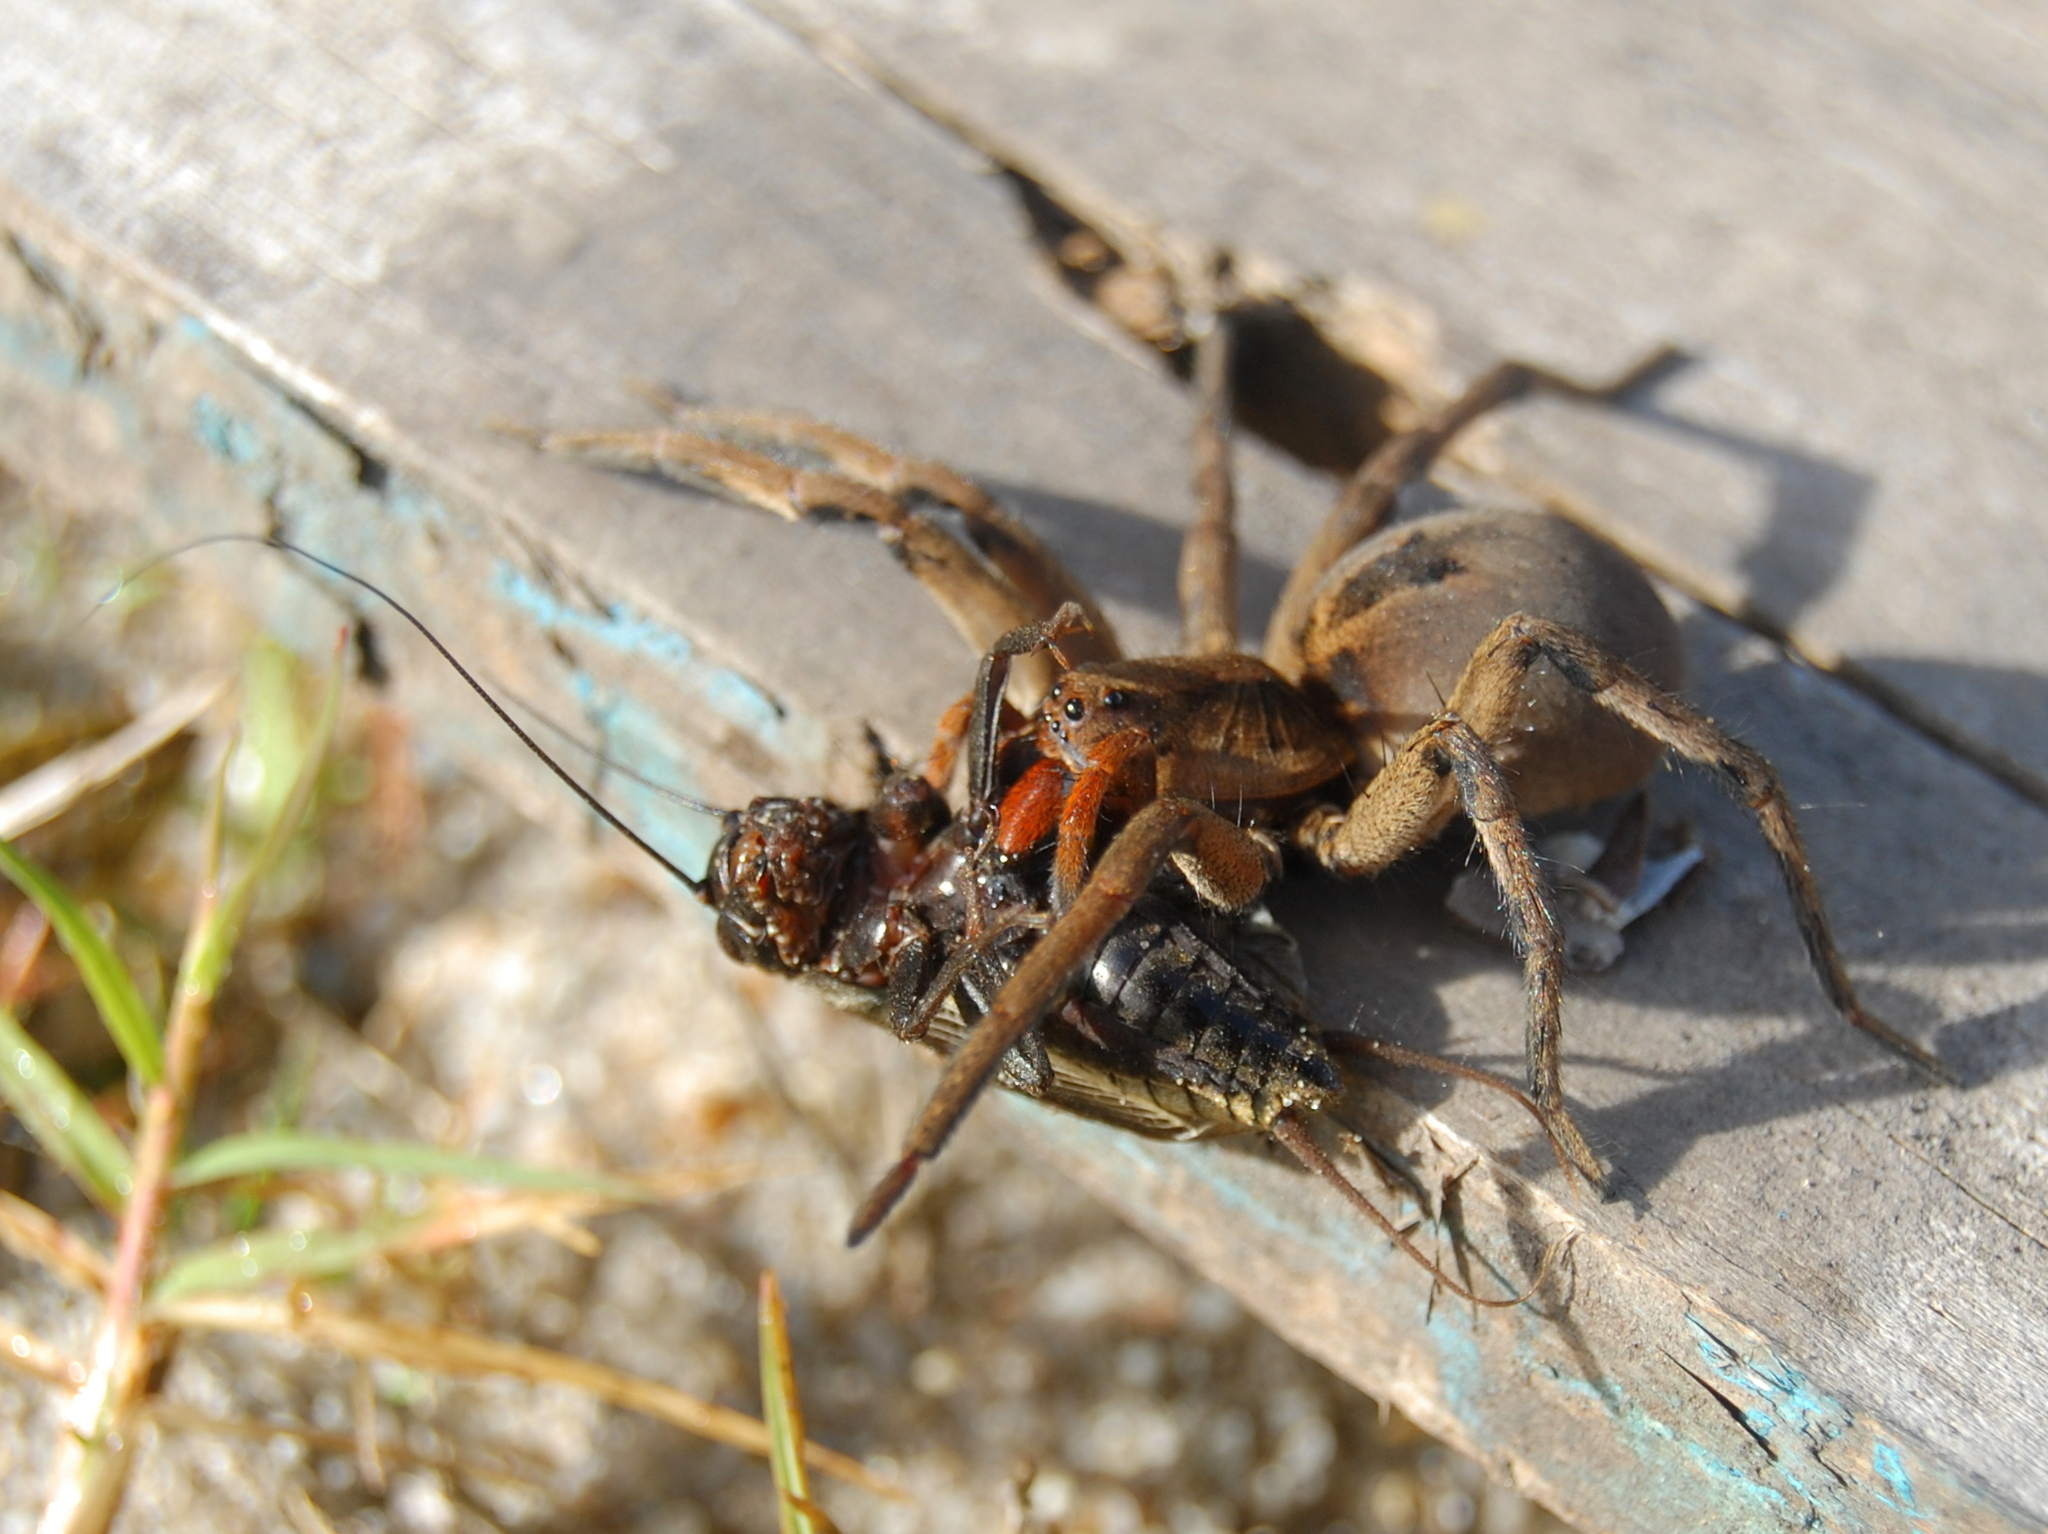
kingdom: Animalia
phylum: Arthropoda
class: Arachnida
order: Araneae
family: Lycosidae
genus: Lycosa
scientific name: Lycosa erythrognatha
